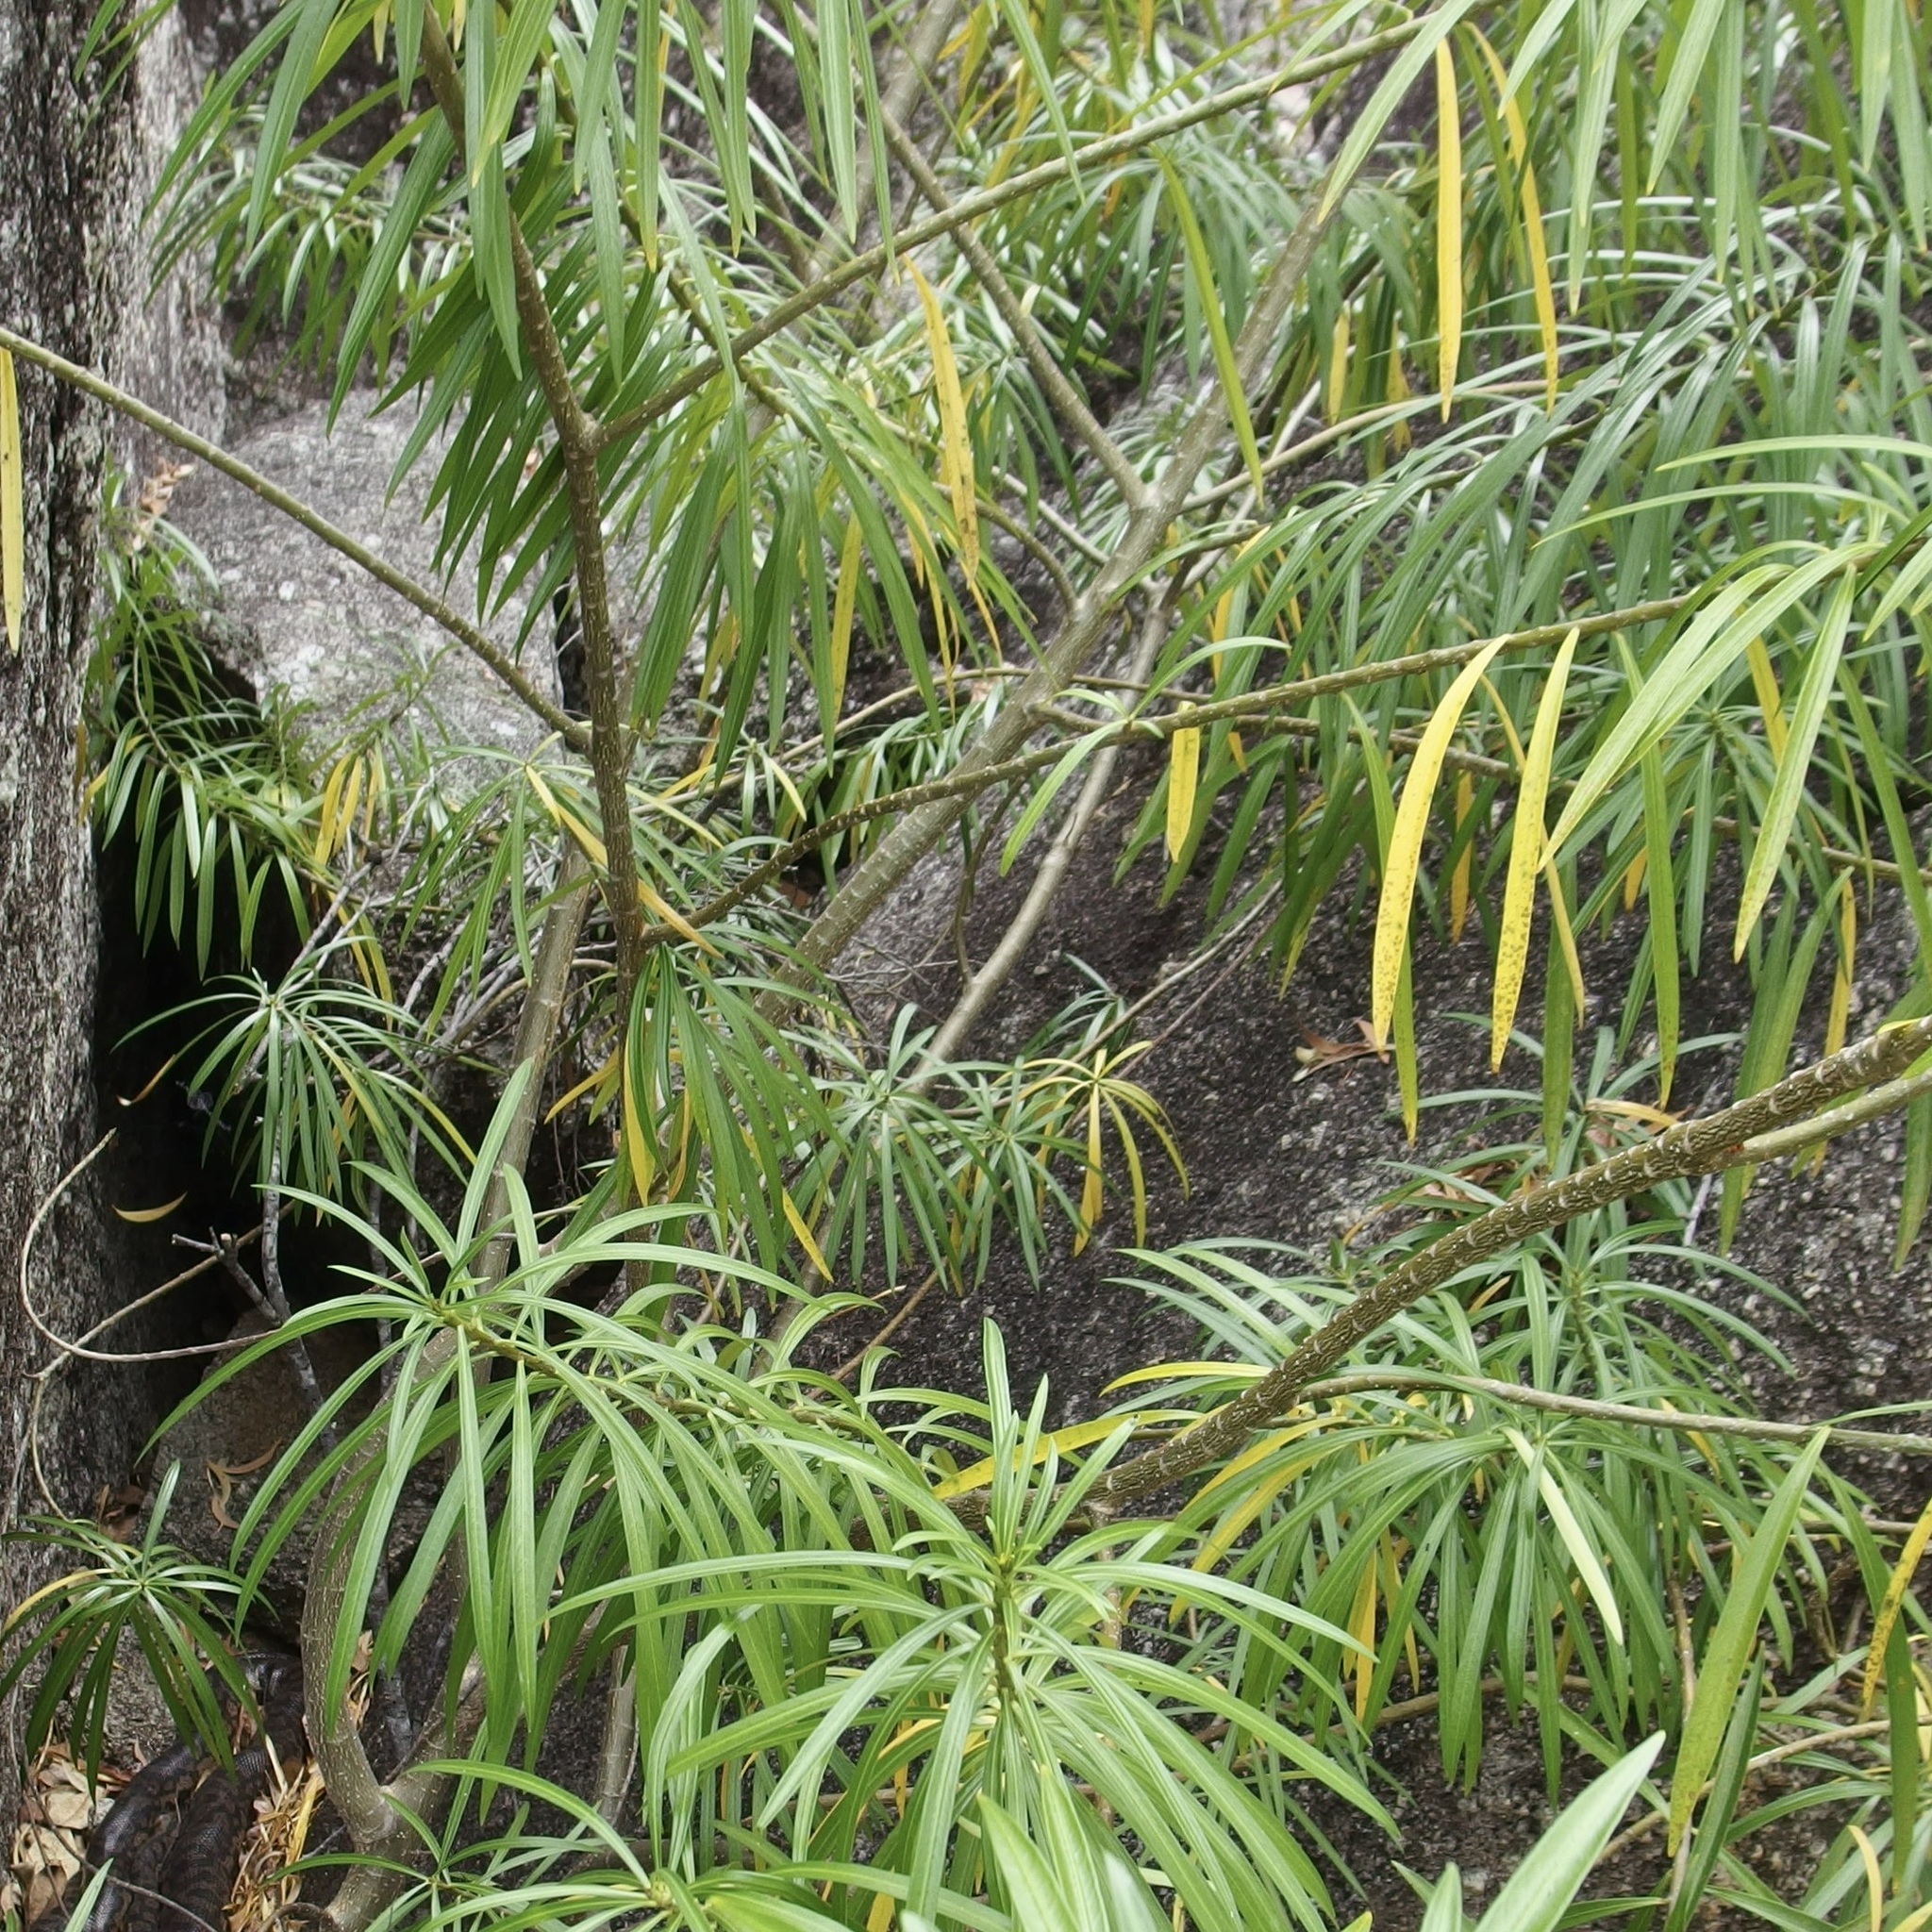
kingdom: Plantae
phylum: Tracheophyta
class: Magnoliopsida
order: Gentianales
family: Apocynaceae
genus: Cascabela
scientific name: Cascabela thevetia
